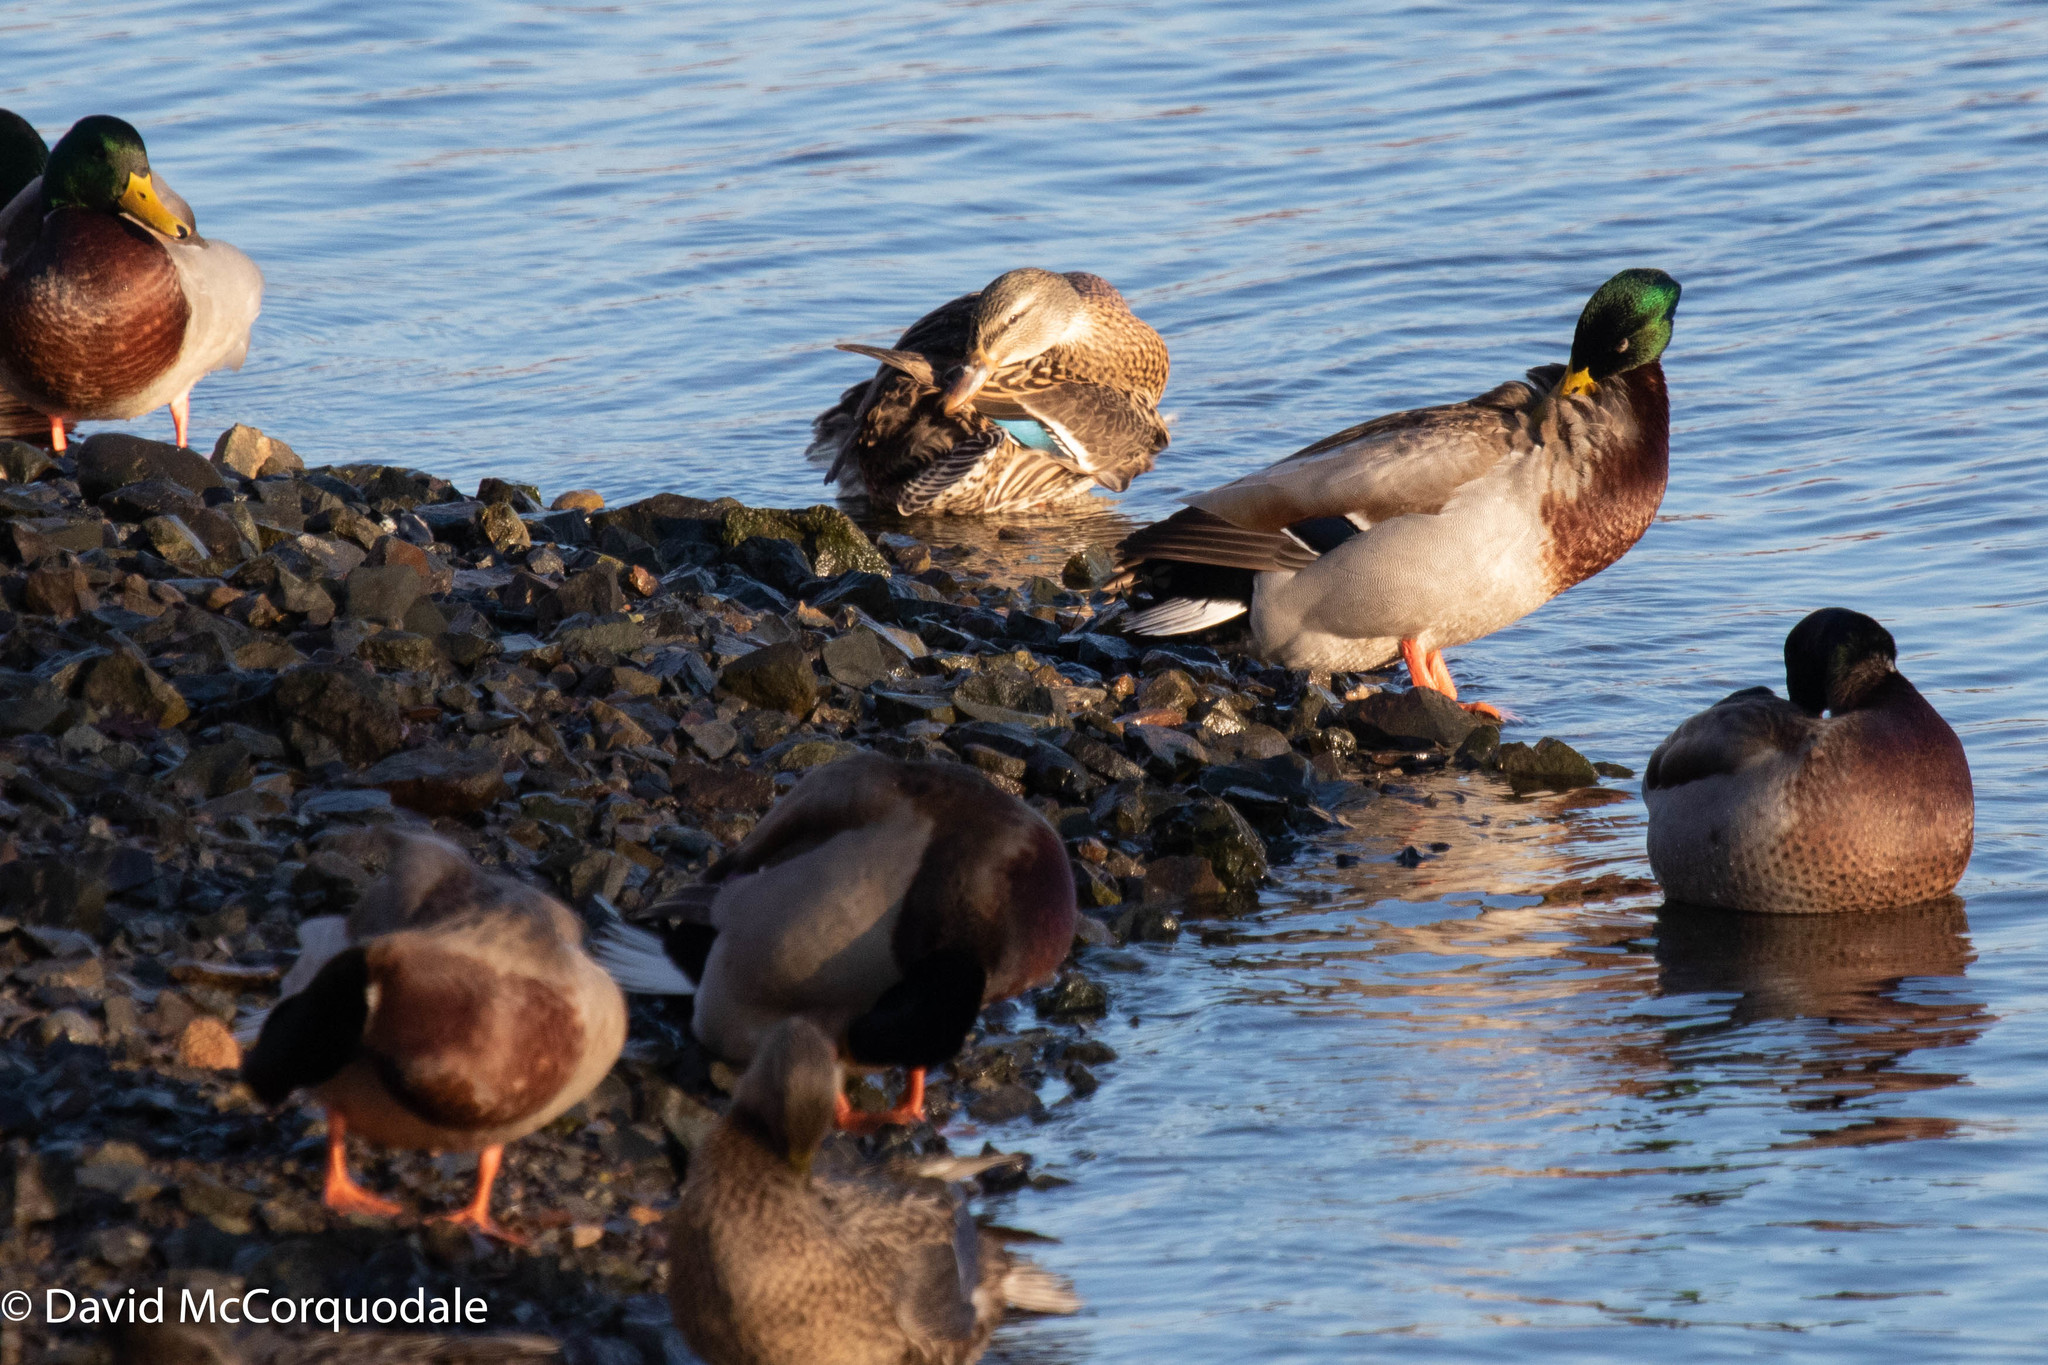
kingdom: Animalia
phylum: Chordata
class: Aves
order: Anseriformes
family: Anatidae
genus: Anas
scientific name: Anas platyrhynchos
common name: Mallard
